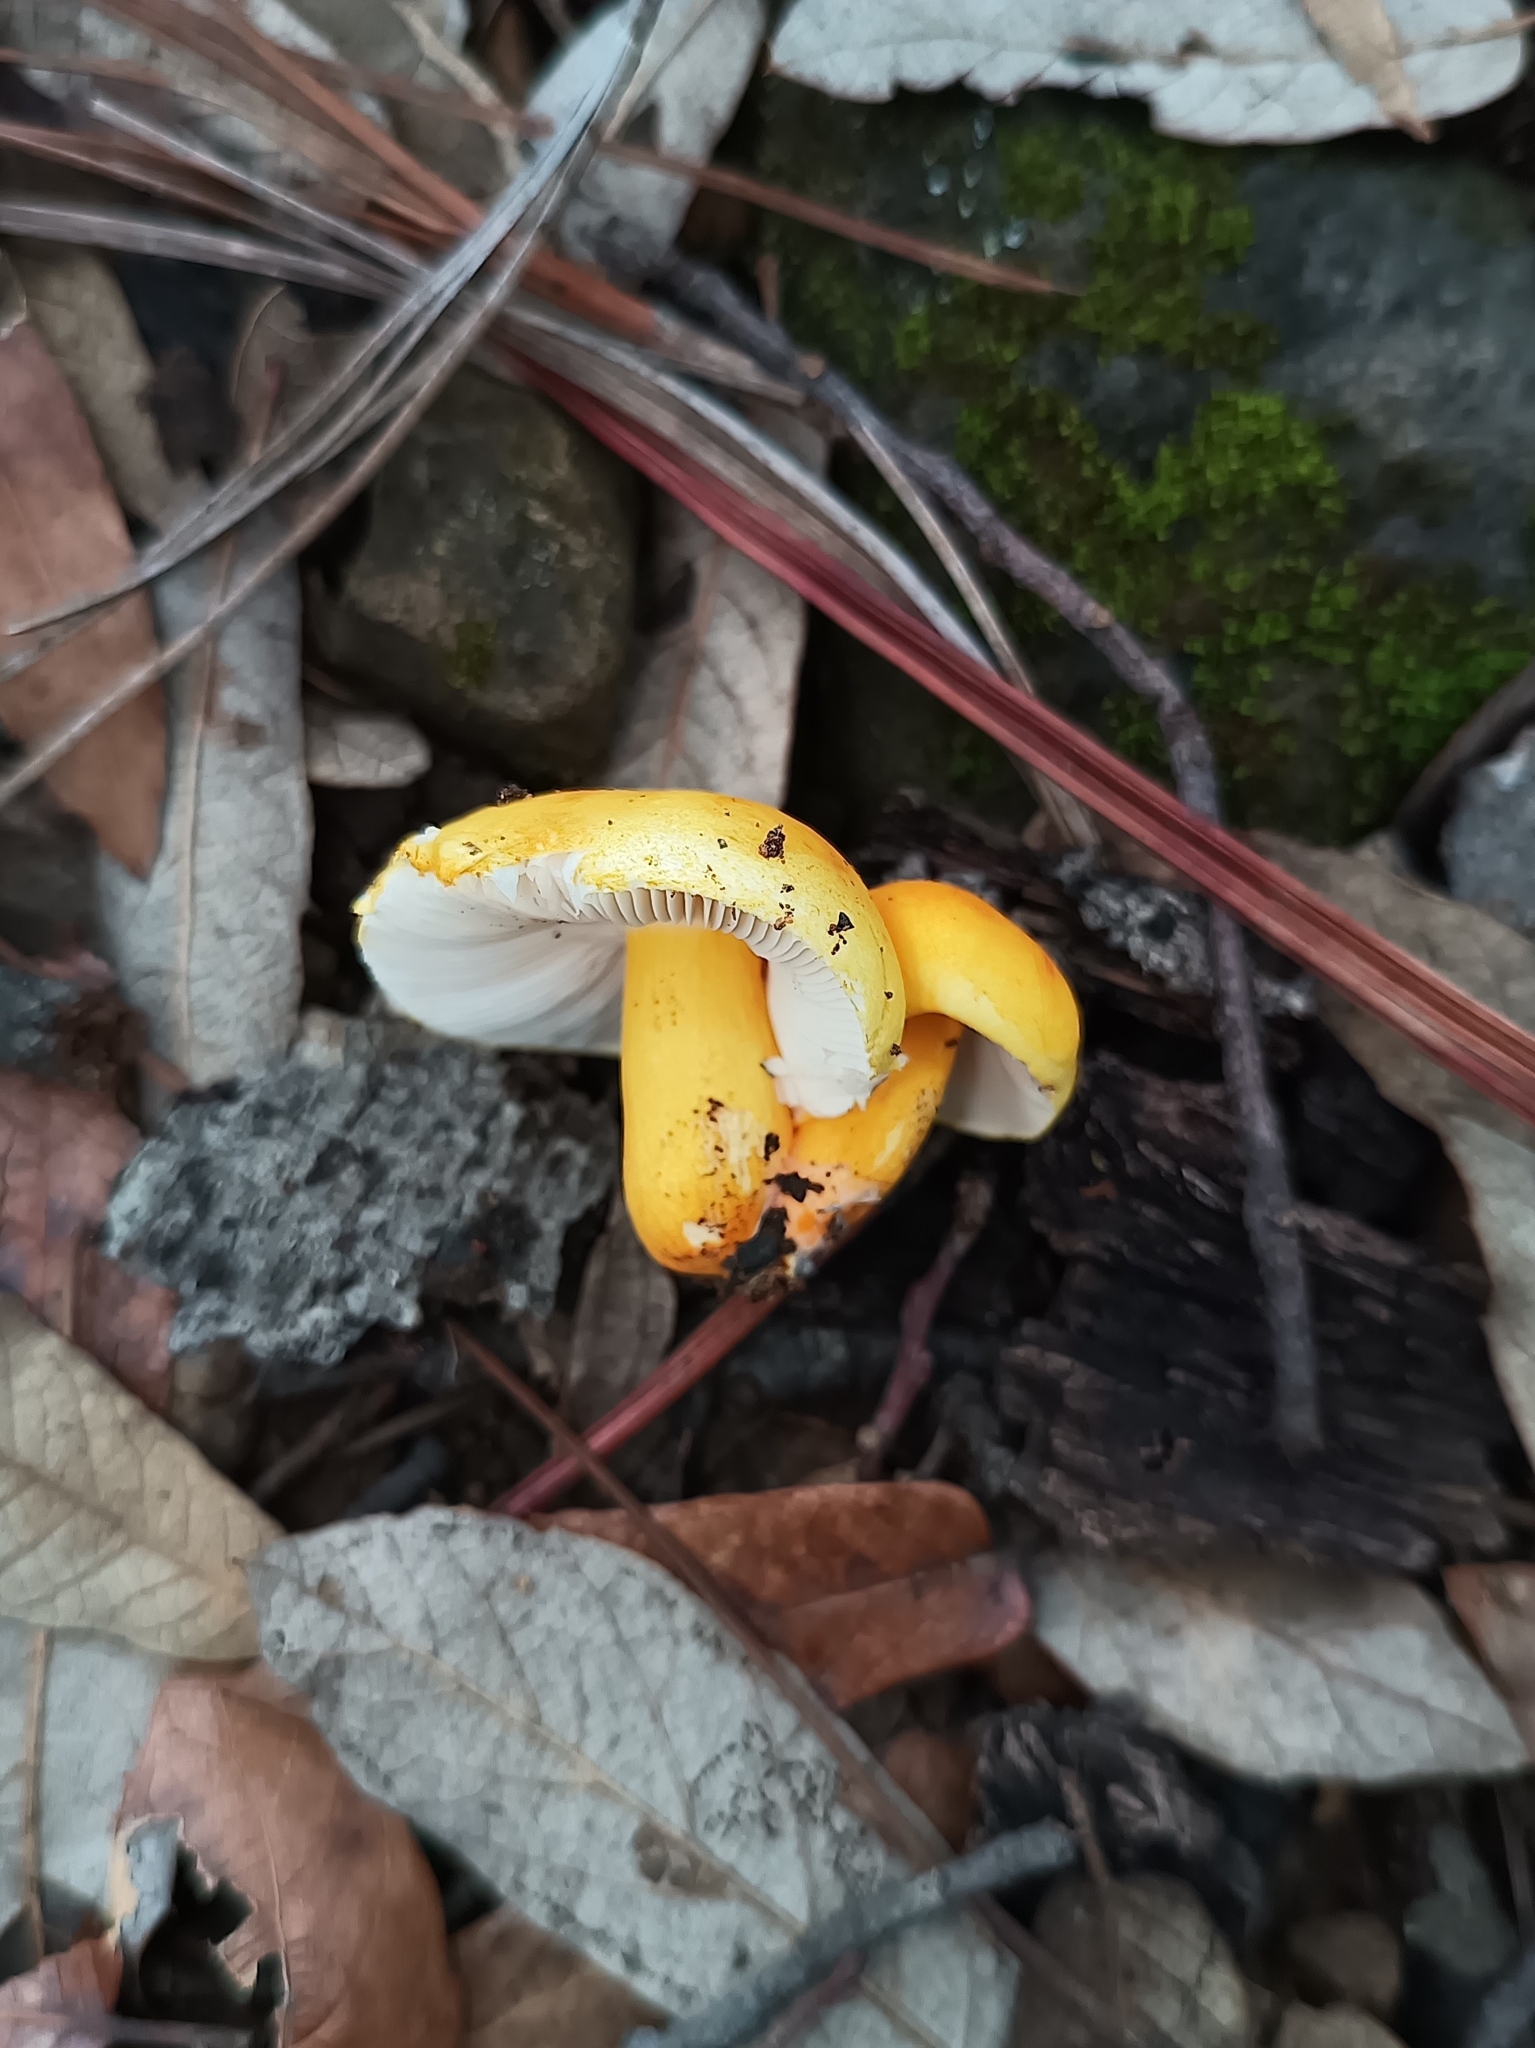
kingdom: Fungi
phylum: Basidiomycota
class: Agaricomycetes
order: Russulales
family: Russulaceae
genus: Russula
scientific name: Russula flavida
